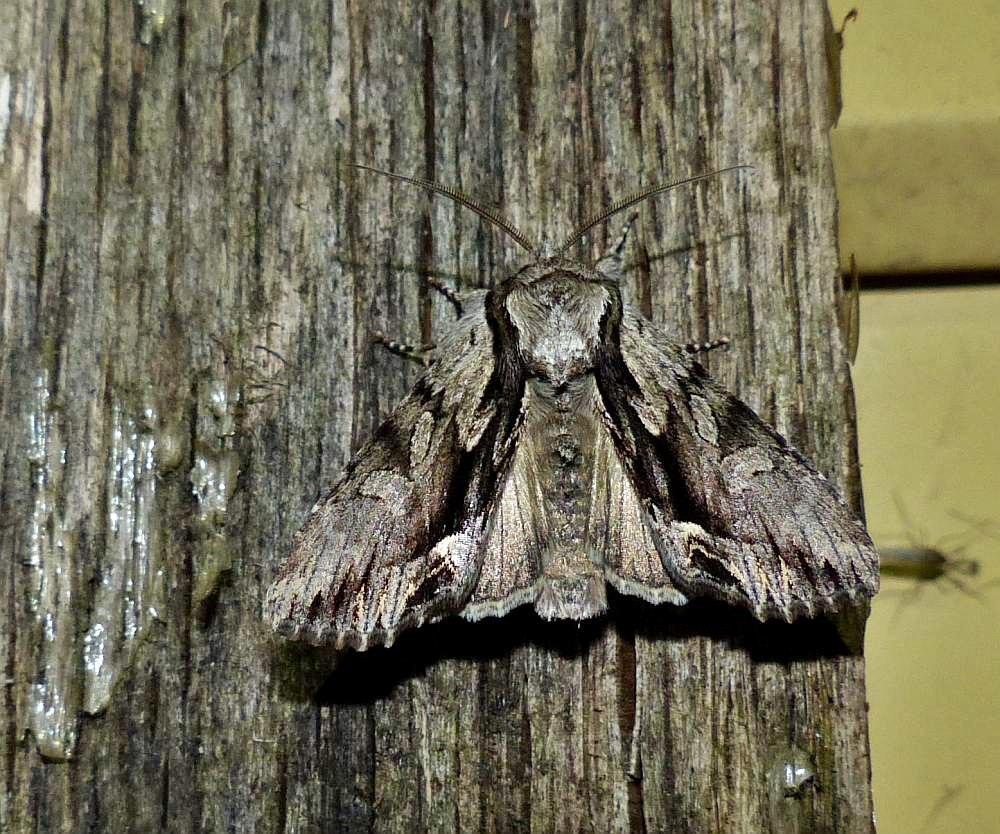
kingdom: Animalia
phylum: Arthropoda
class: Insecta
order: Lepidoptera
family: Noctuidae
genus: Hyppa
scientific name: Hyppa xylinoides
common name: Common hyppa moth
